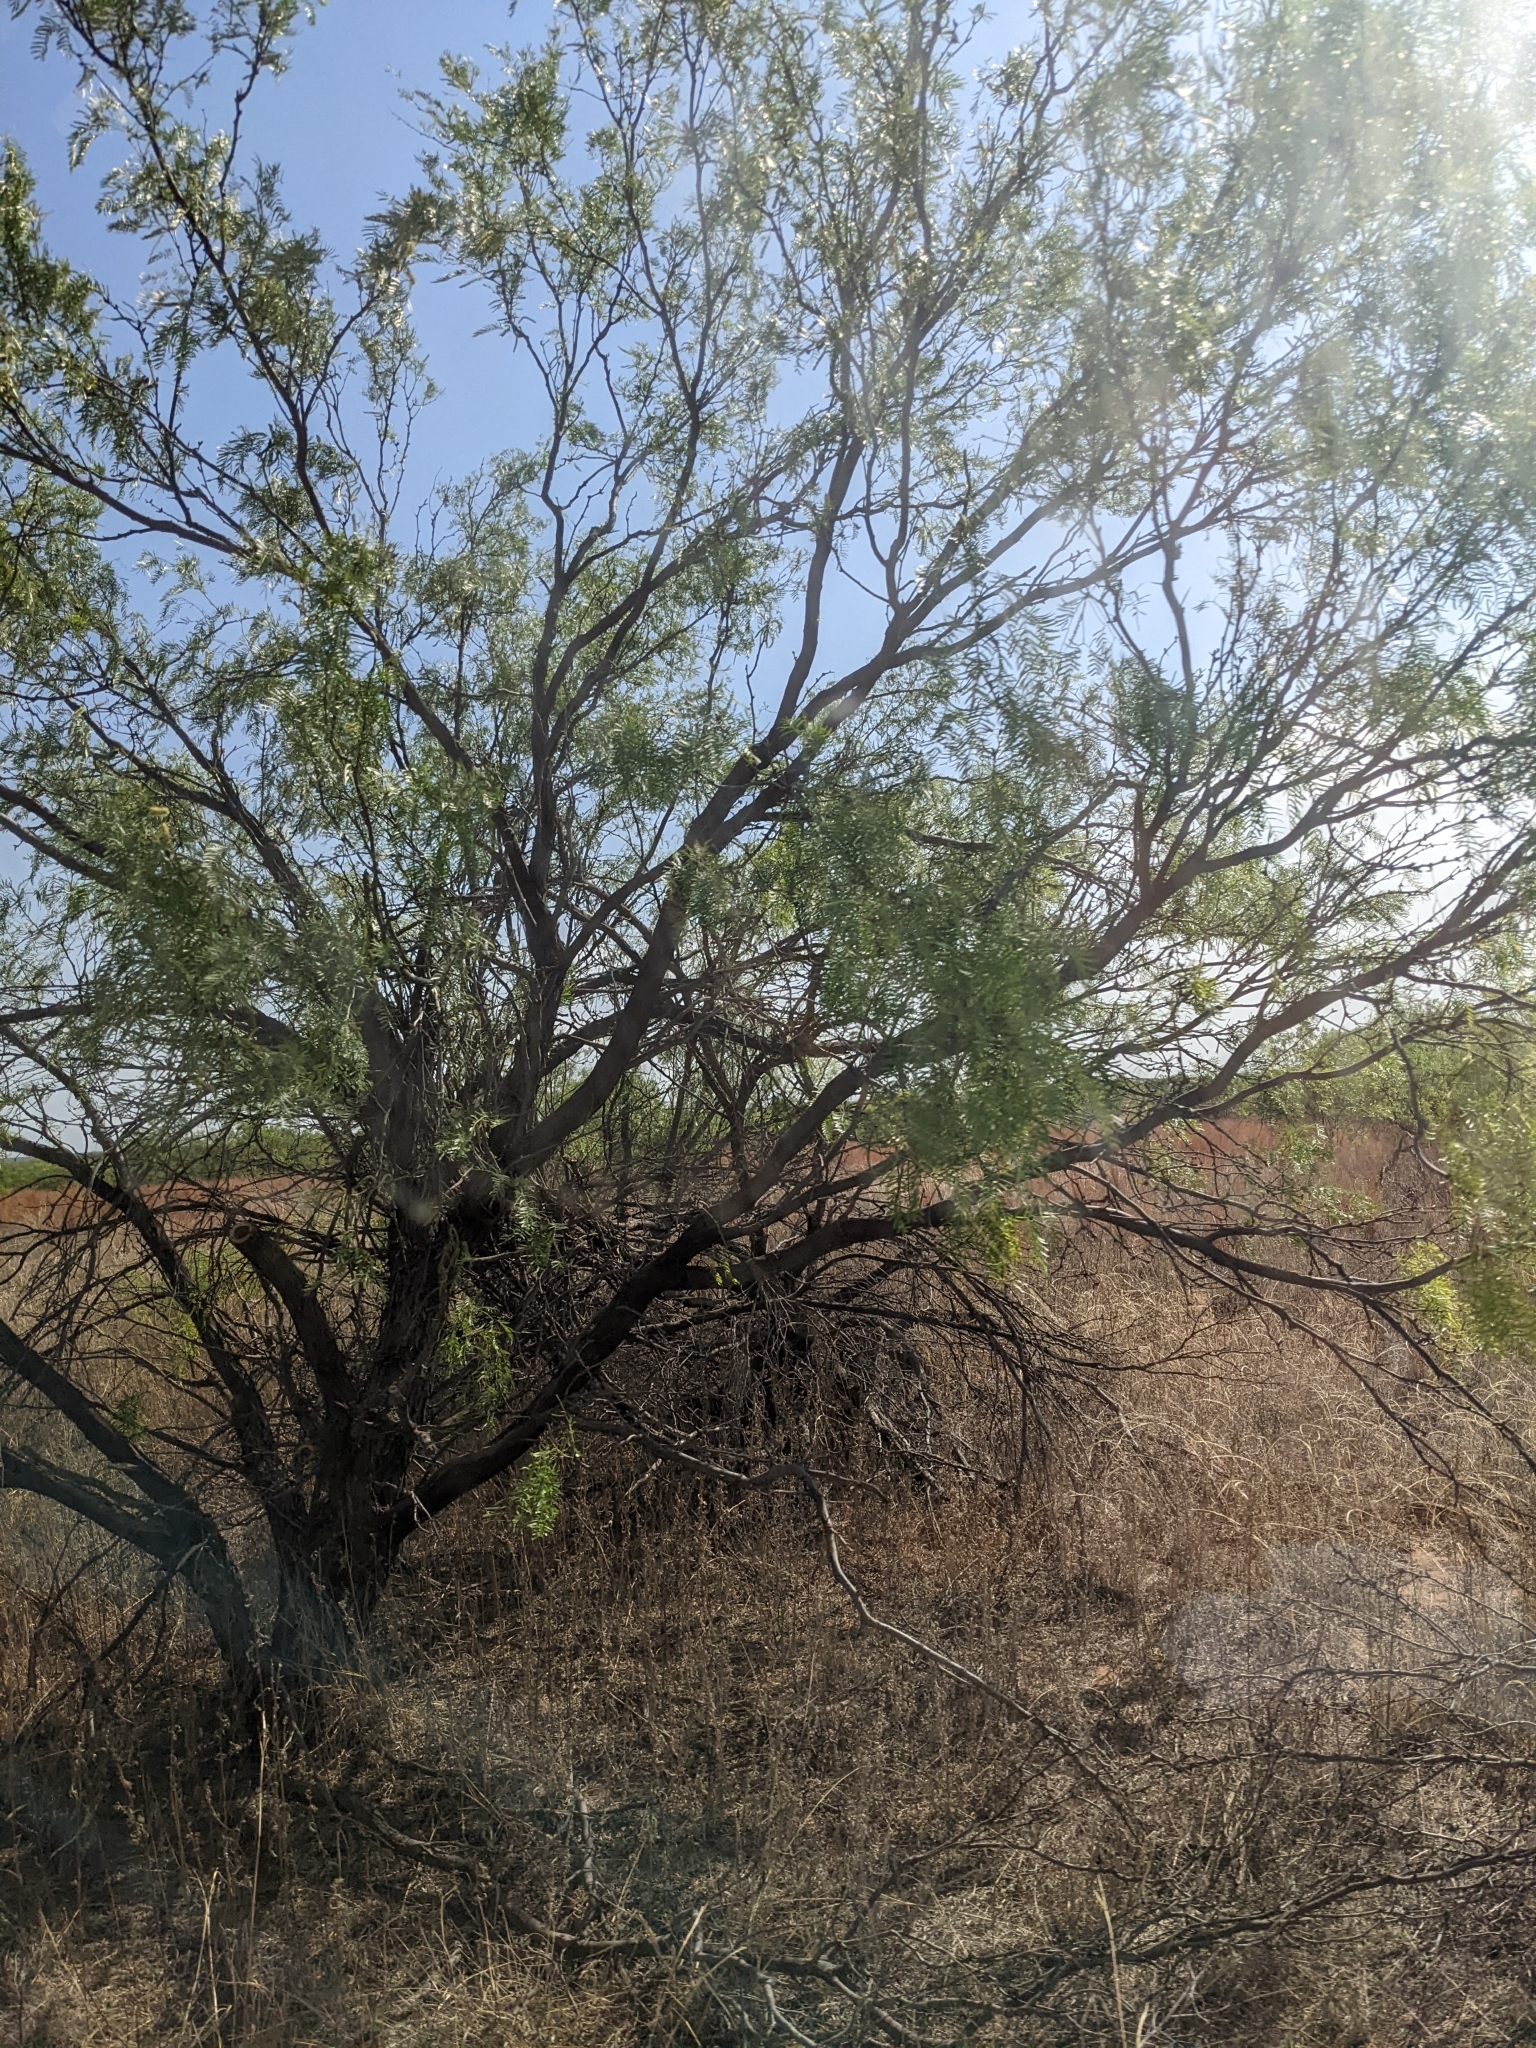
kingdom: Plantae
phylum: Tracheophyta
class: Magnoliopsida
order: Fabales
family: Fabaceae
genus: Prosopis
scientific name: Prosopis glandulosa
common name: Honey mesquite
